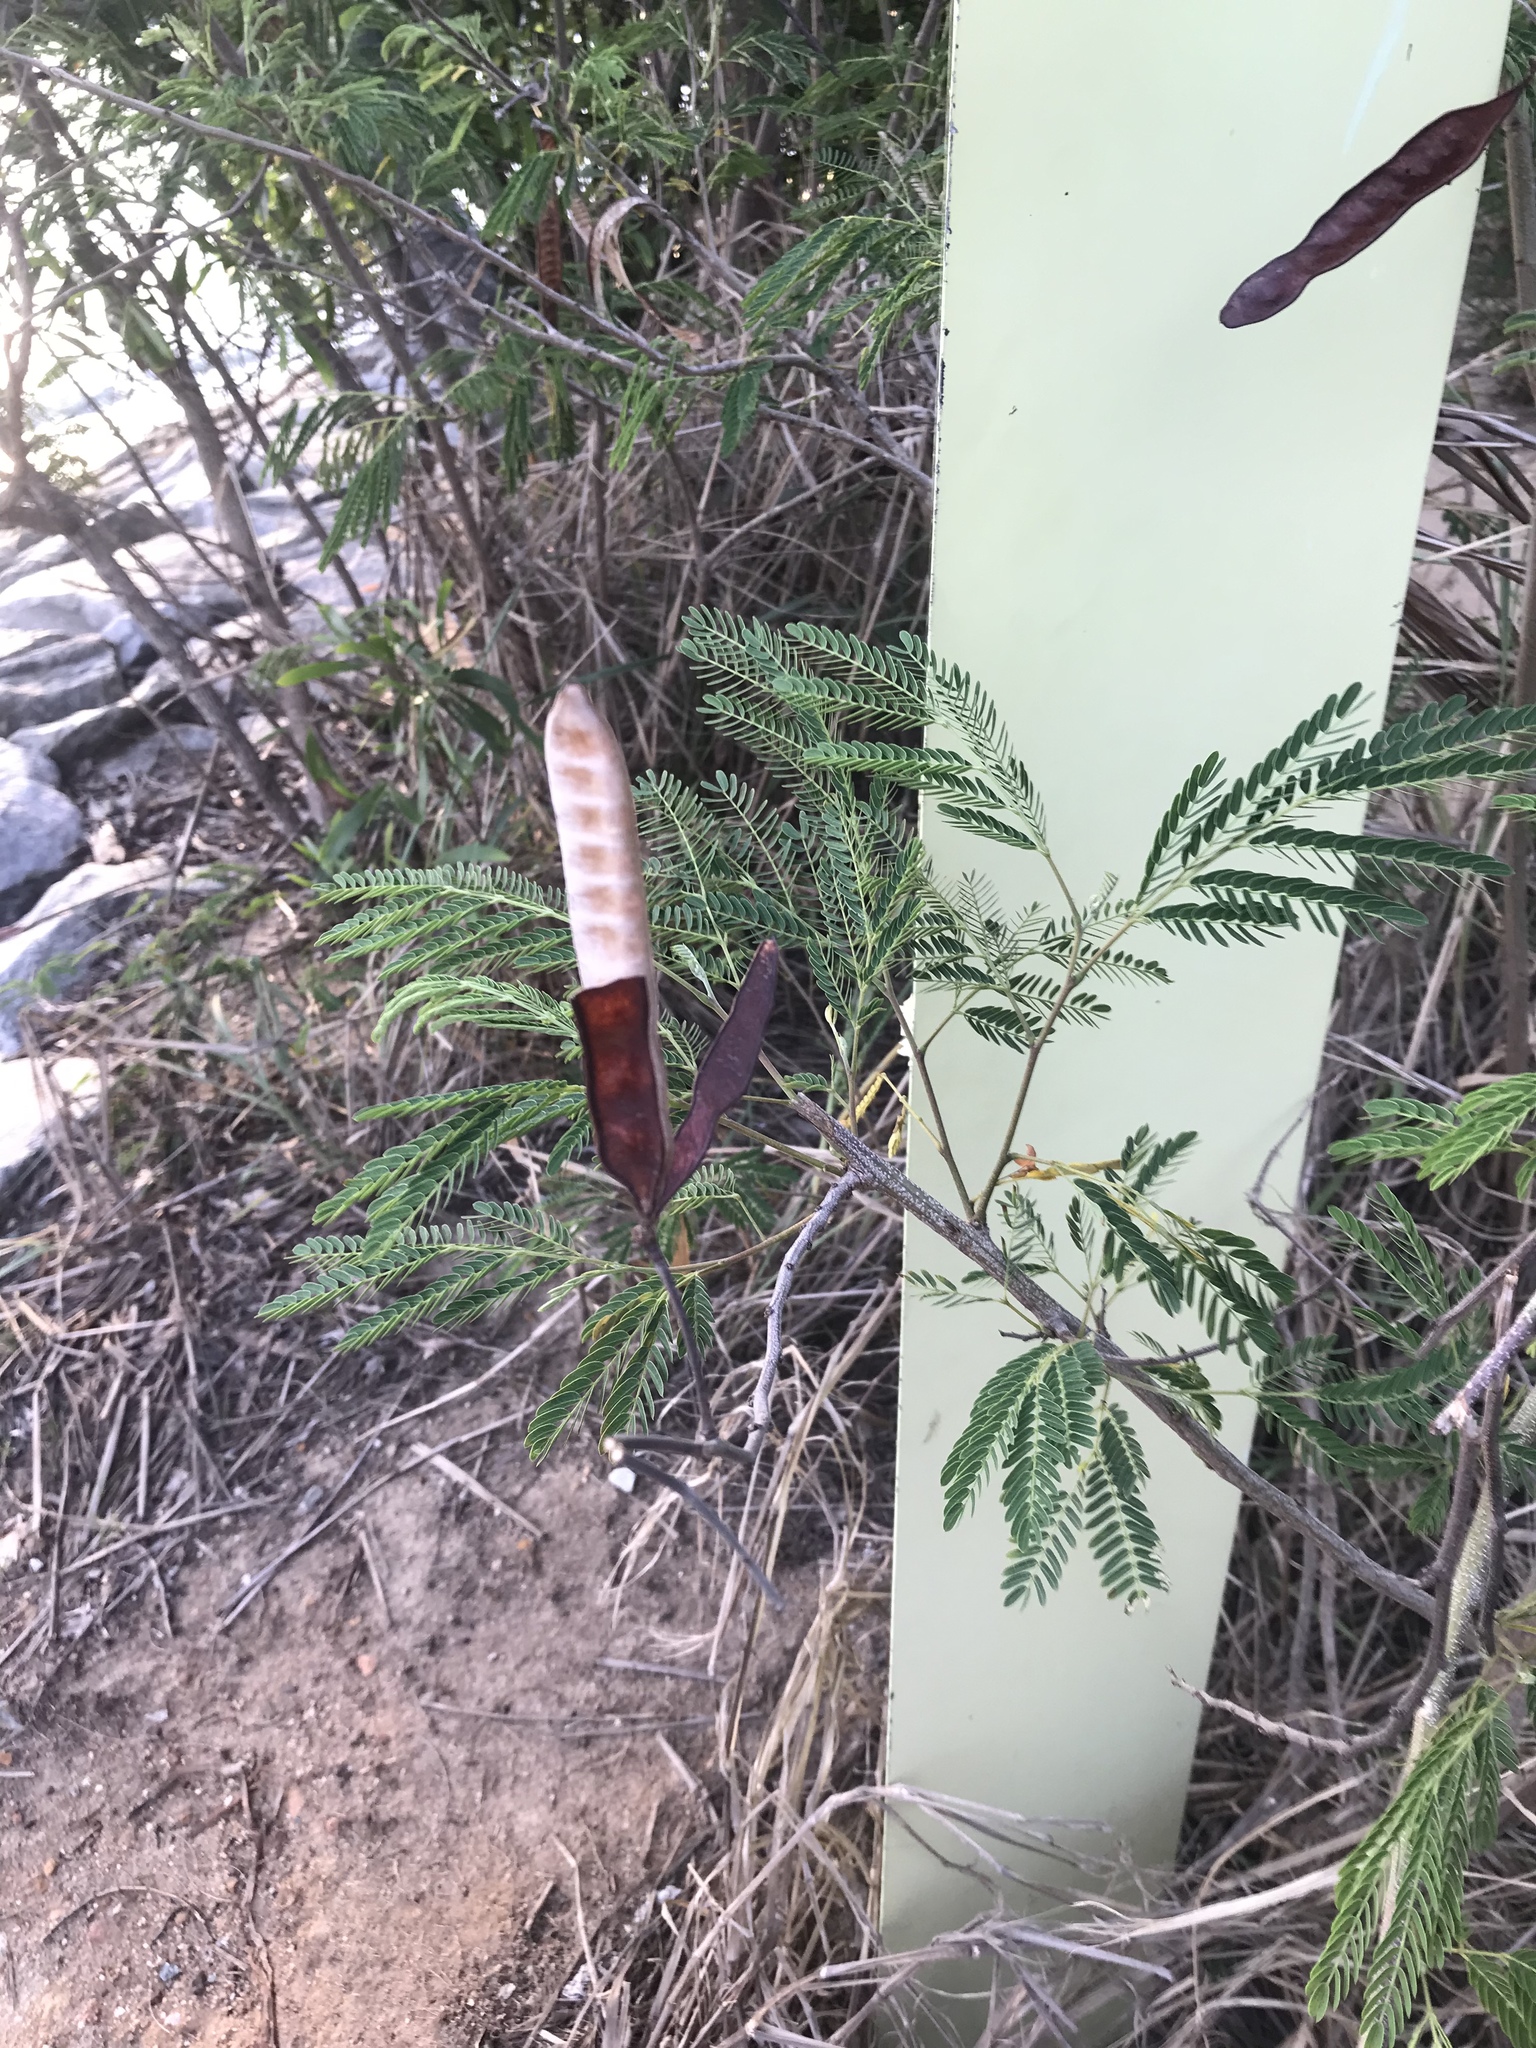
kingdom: Plantae
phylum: Tracheophyta
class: Magnoliopsida
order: Fabales
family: Fabaceae
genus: Leucaena
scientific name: Leucaena leucocephala
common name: White leadtree
